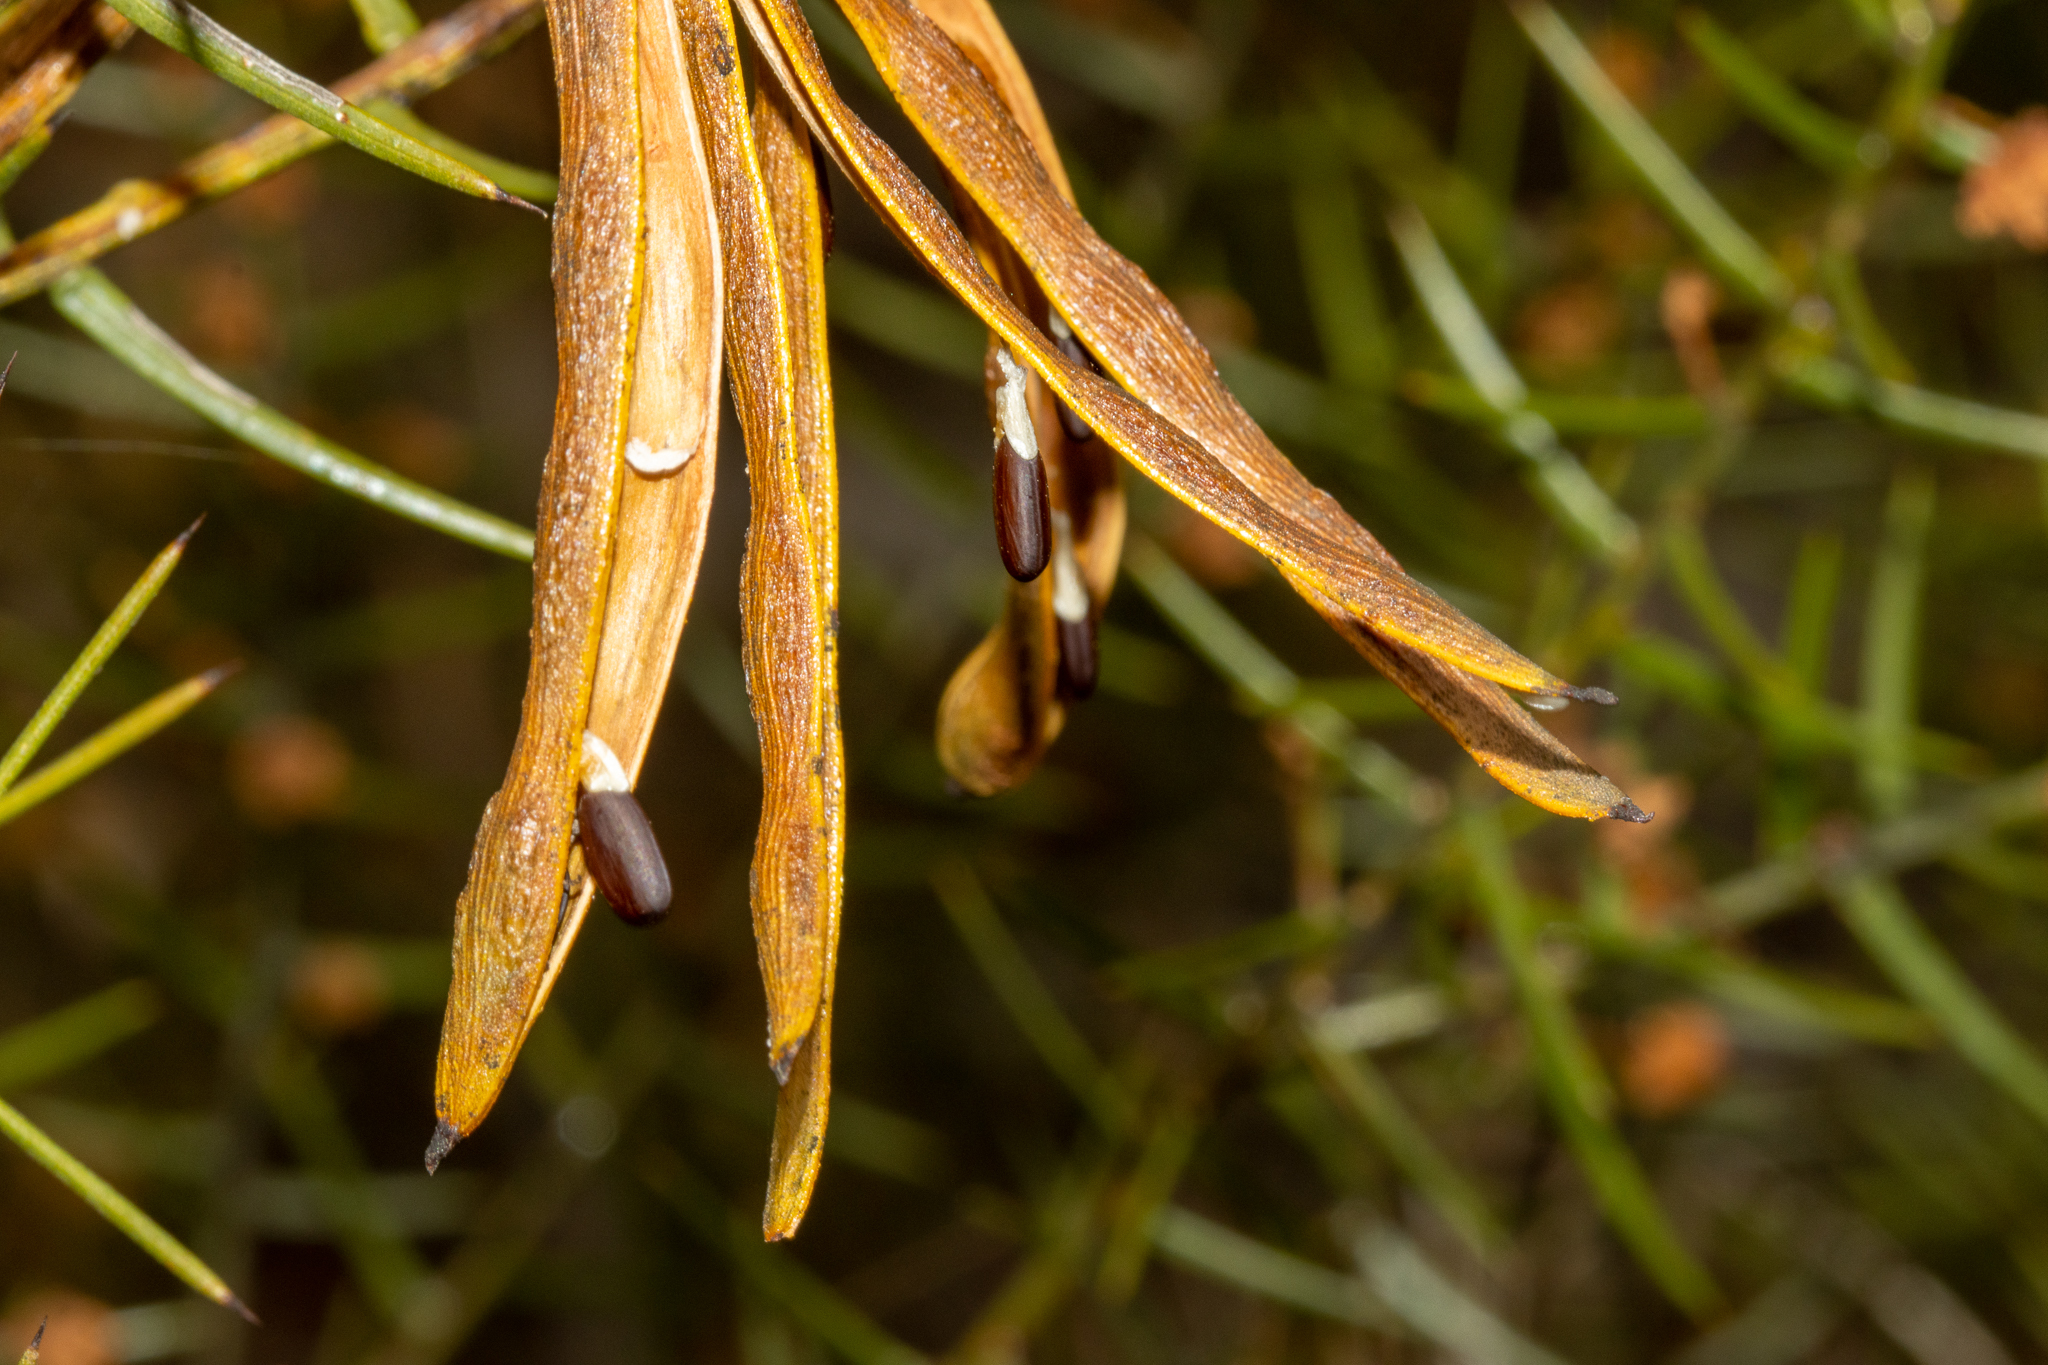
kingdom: Plantae
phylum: Tracheophyta
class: Magnoliopsida
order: Fabales
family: Fabaceae
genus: Acacia
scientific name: Acacia rupicola
